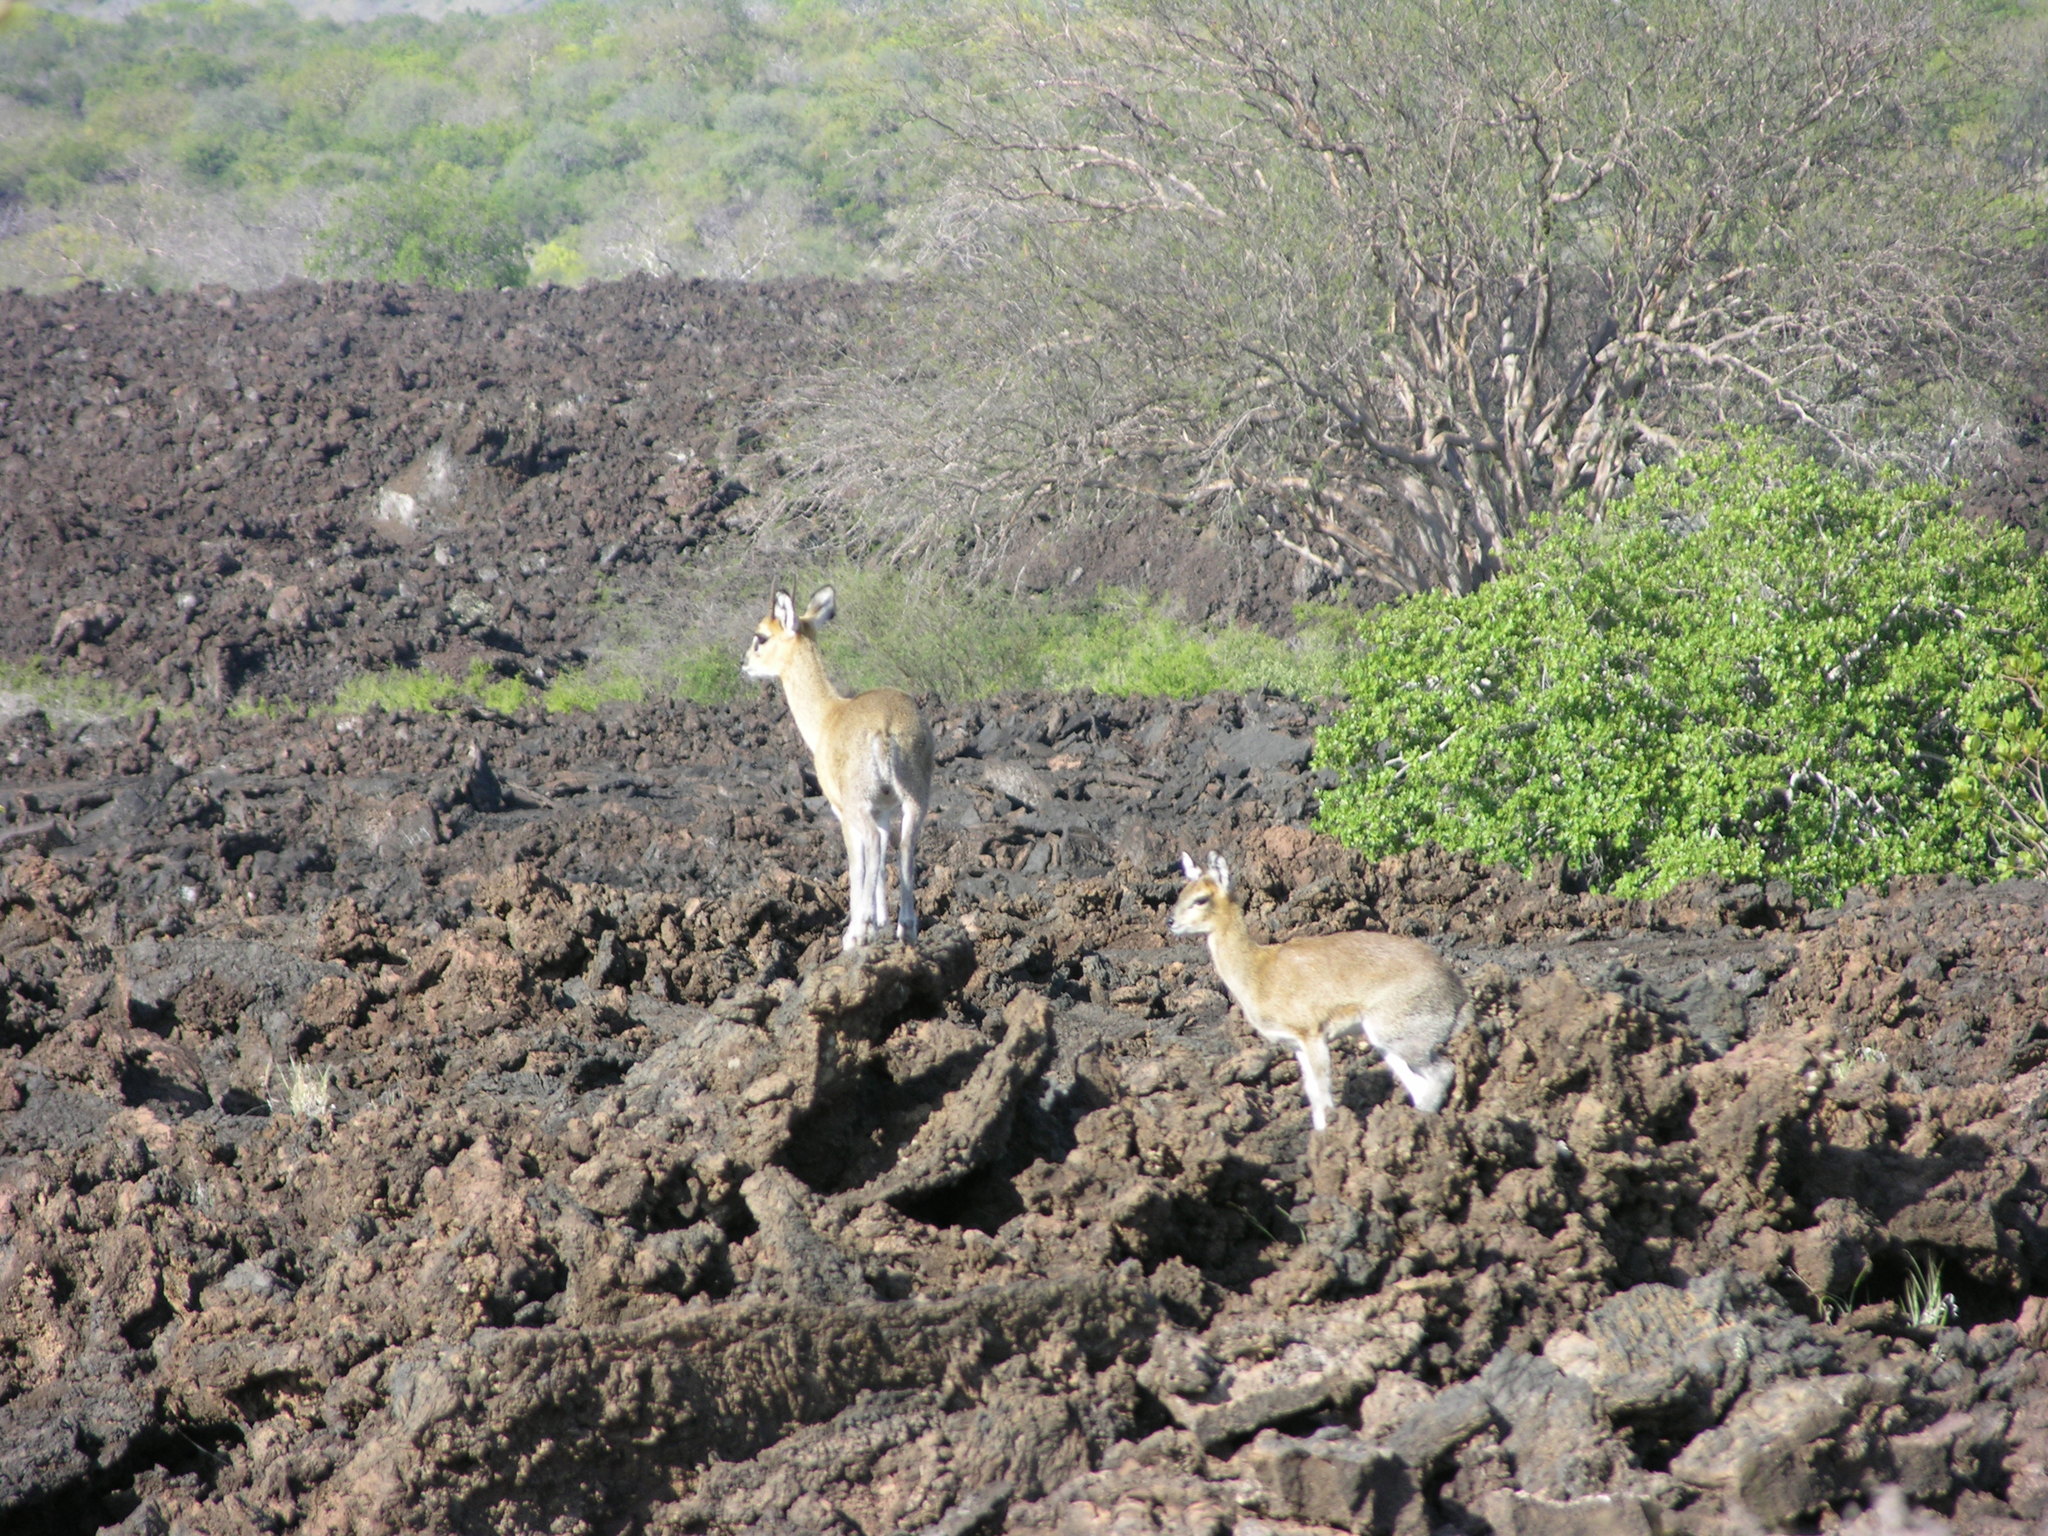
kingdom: Animalia
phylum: Chordata
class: Mammalia
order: Artiodactyla
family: Bovidae
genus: Oreotragus
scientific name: Oreotragus oreotragus
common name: Klipspringer
